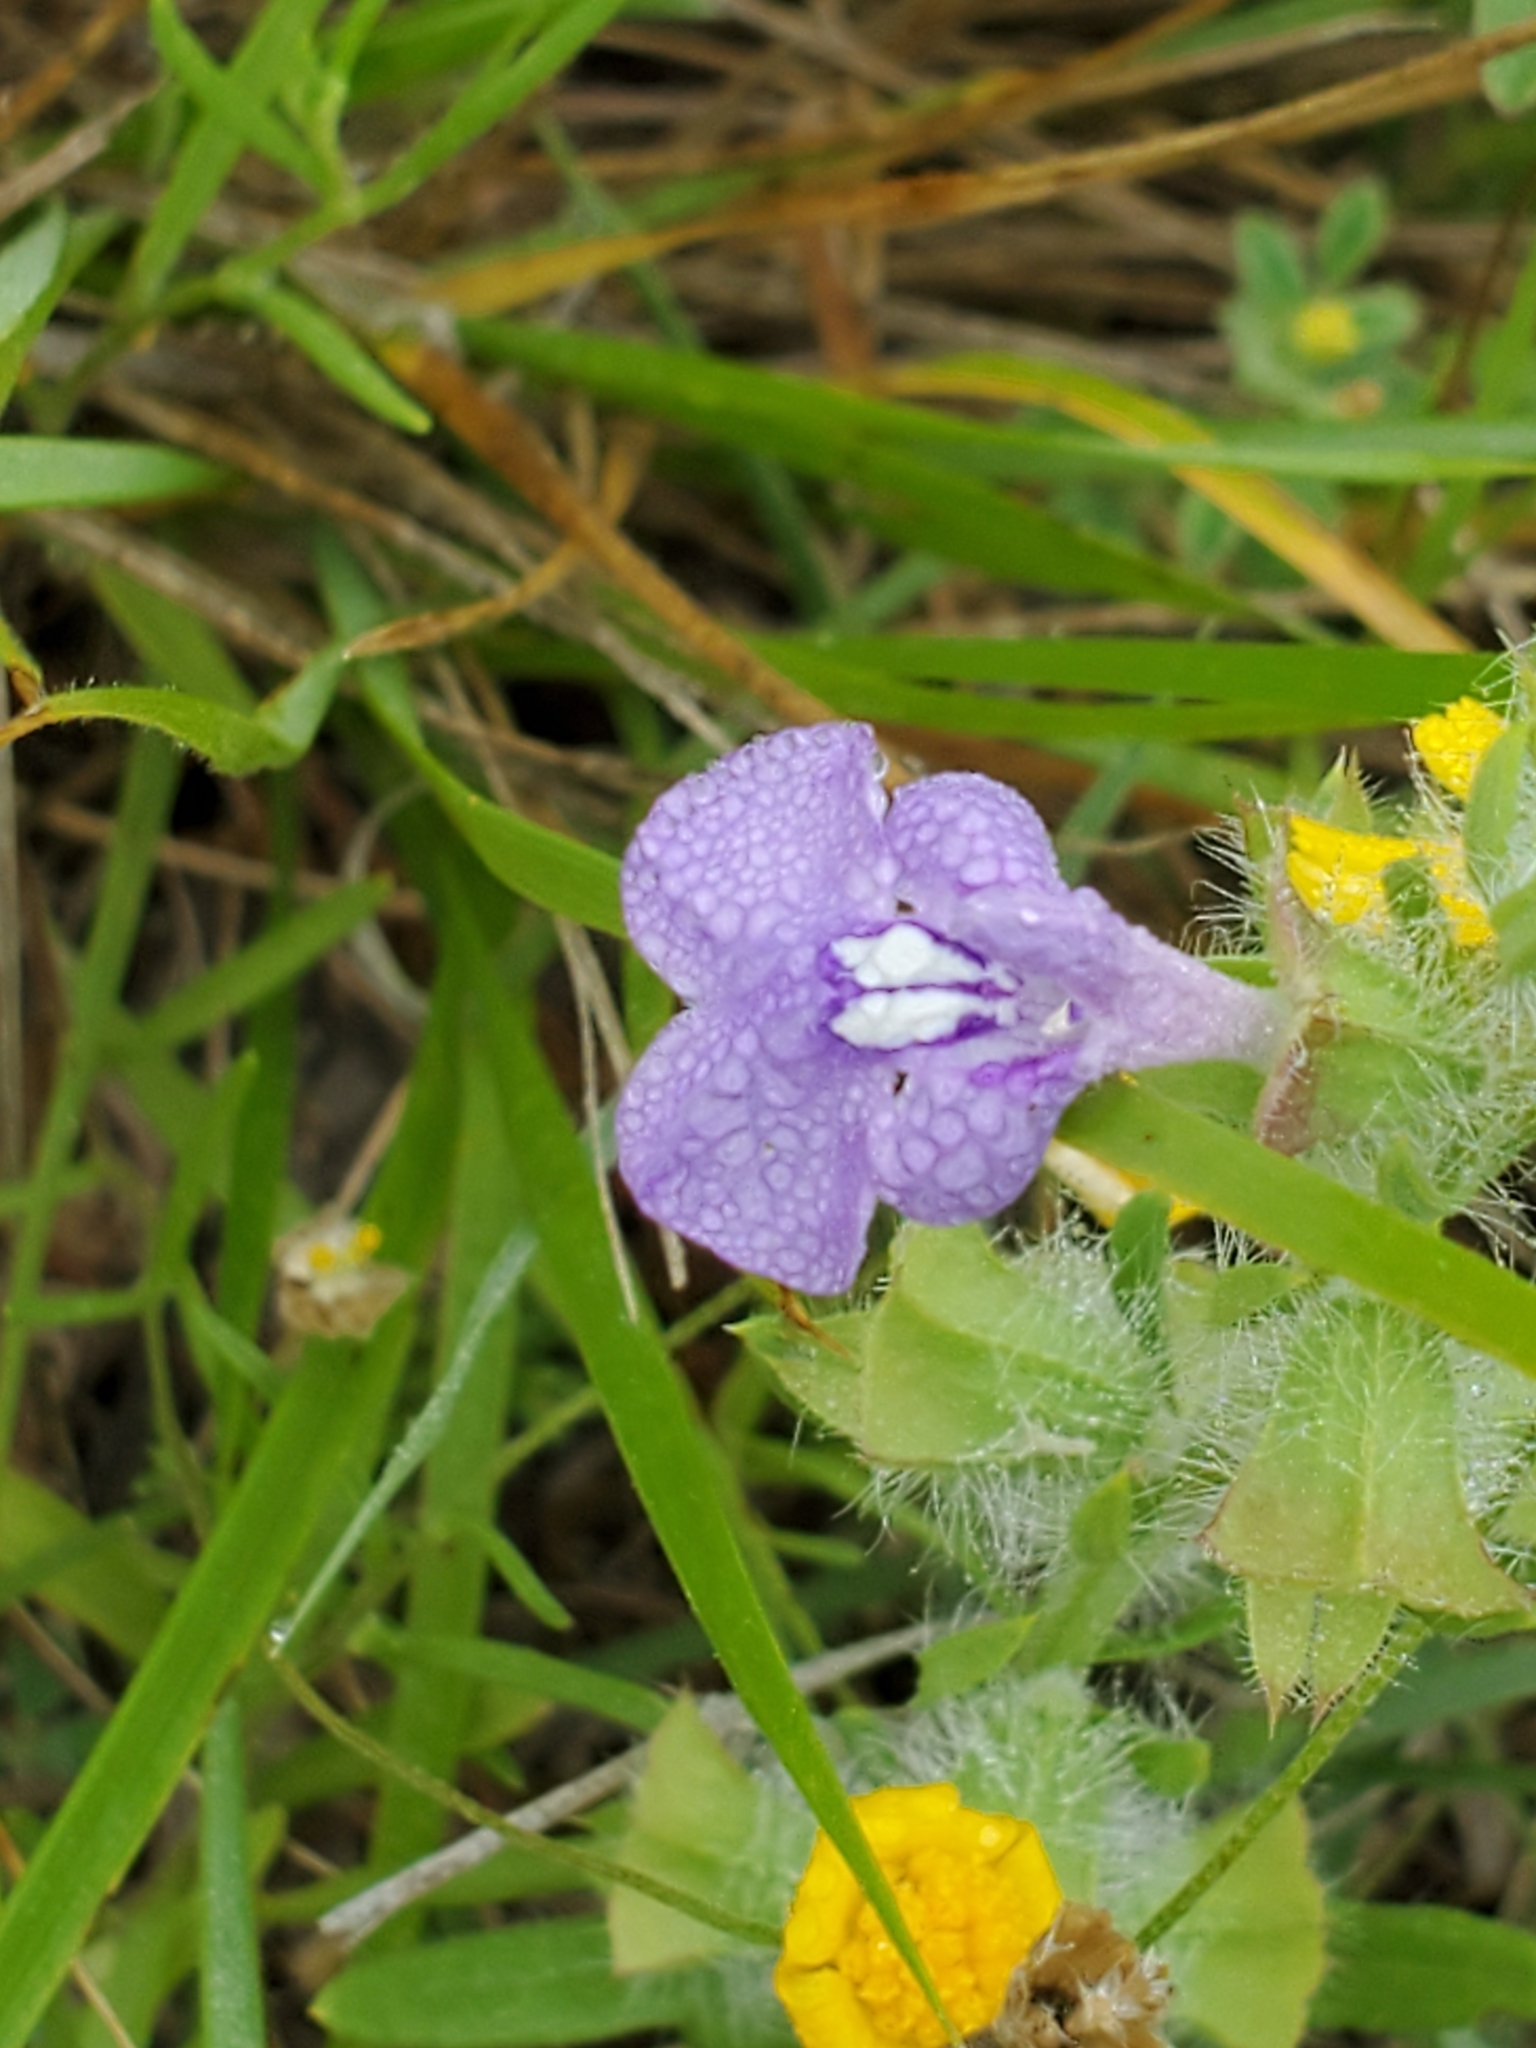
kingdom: Plantae
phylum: Tracheophyta
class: Magnoliopsida
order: Lamiales
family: Lamiaceae
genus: Salvia
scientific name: Salvia texana
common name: Texas sage
